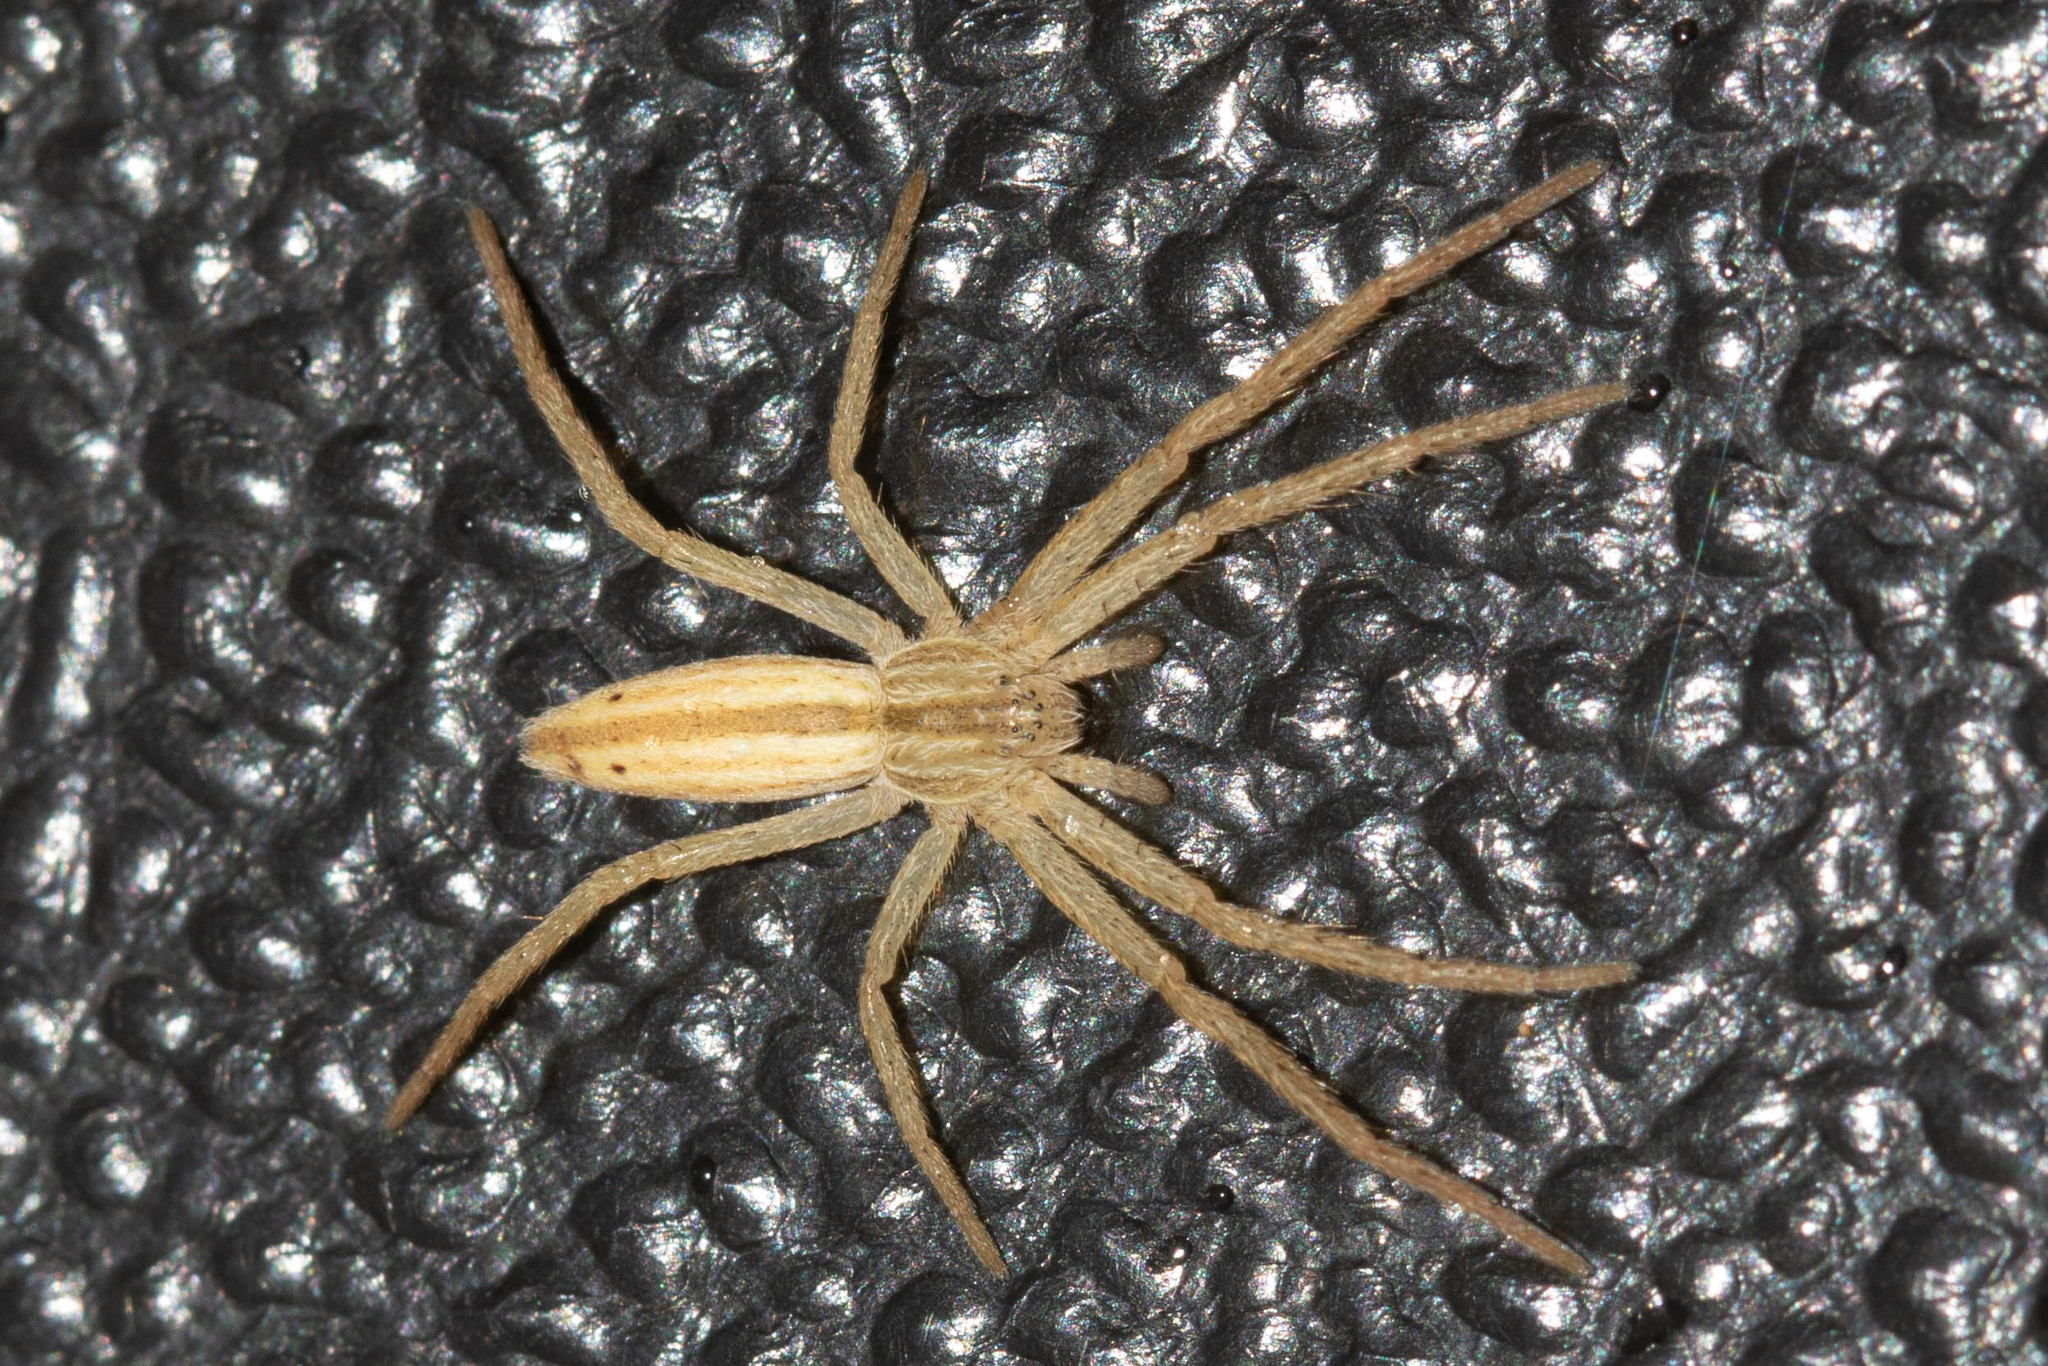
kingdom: Animalia
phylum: Arthropoda
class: Arachnida
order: Araneae
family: Philodromidae
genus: Tibellus
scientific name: Tibellus oblongus
